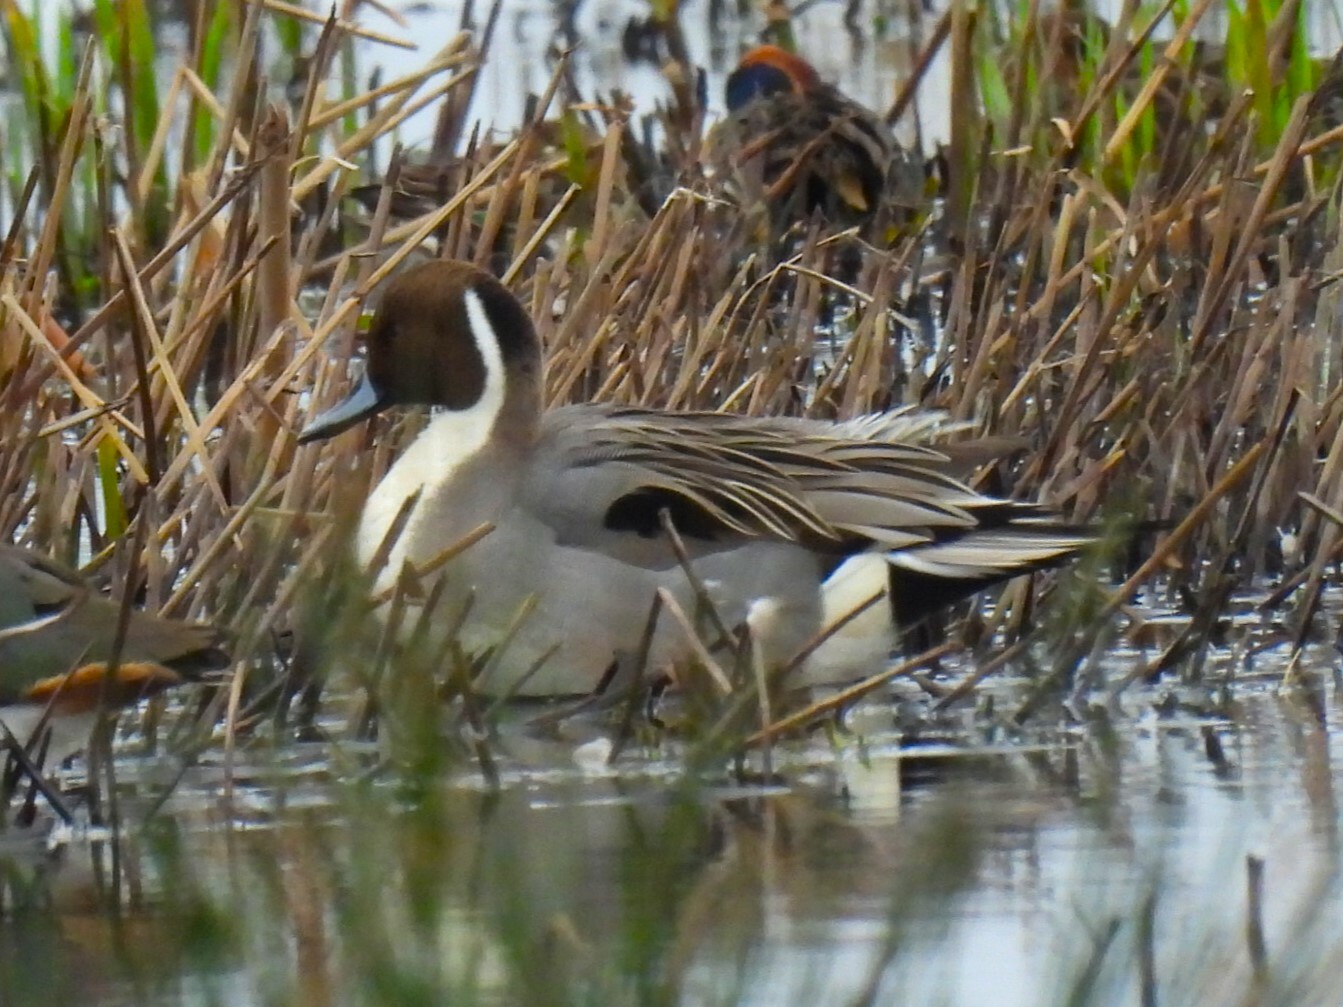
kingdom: Animalia
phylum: Chordata
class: Aves
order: Anseriformes
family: Anatidae
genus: Anas
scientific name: Anas acuta
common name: Northern pintail
